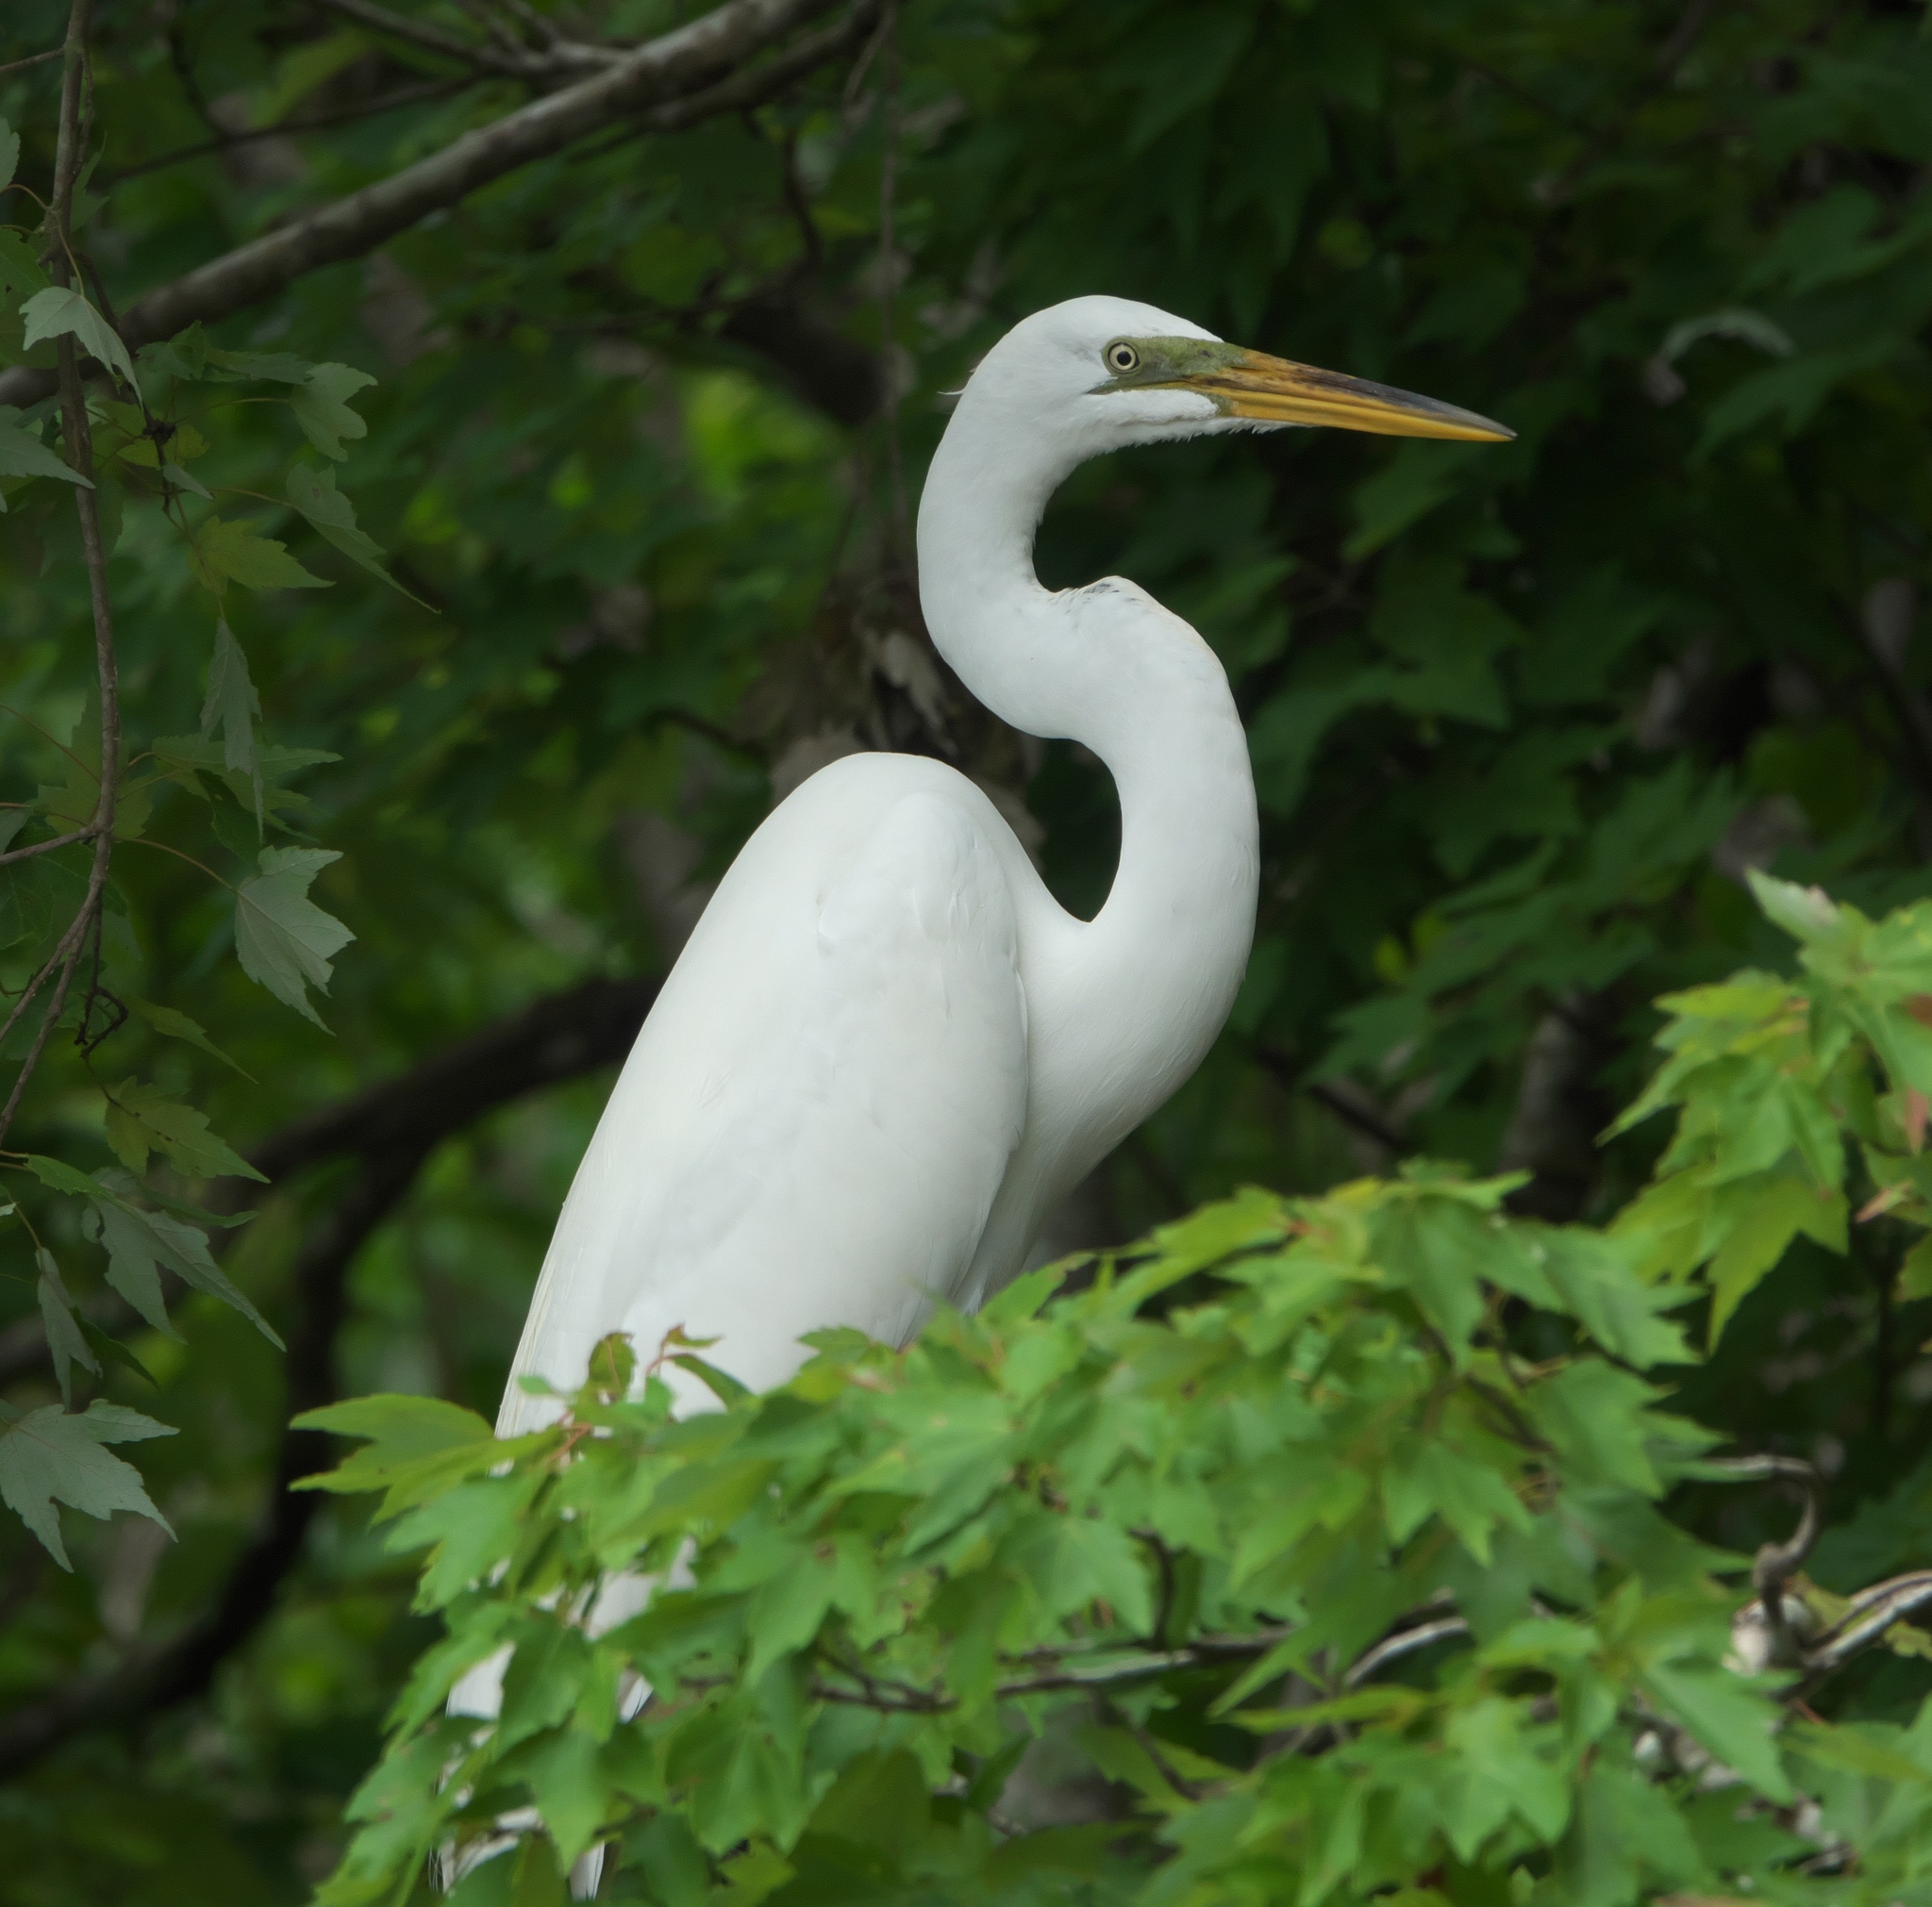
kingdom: Animalia
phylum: Chordata
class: Aves
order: Pelecaniformes
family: Ardeidae
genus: Ardea
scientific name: Ardea alba
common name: Great egret
